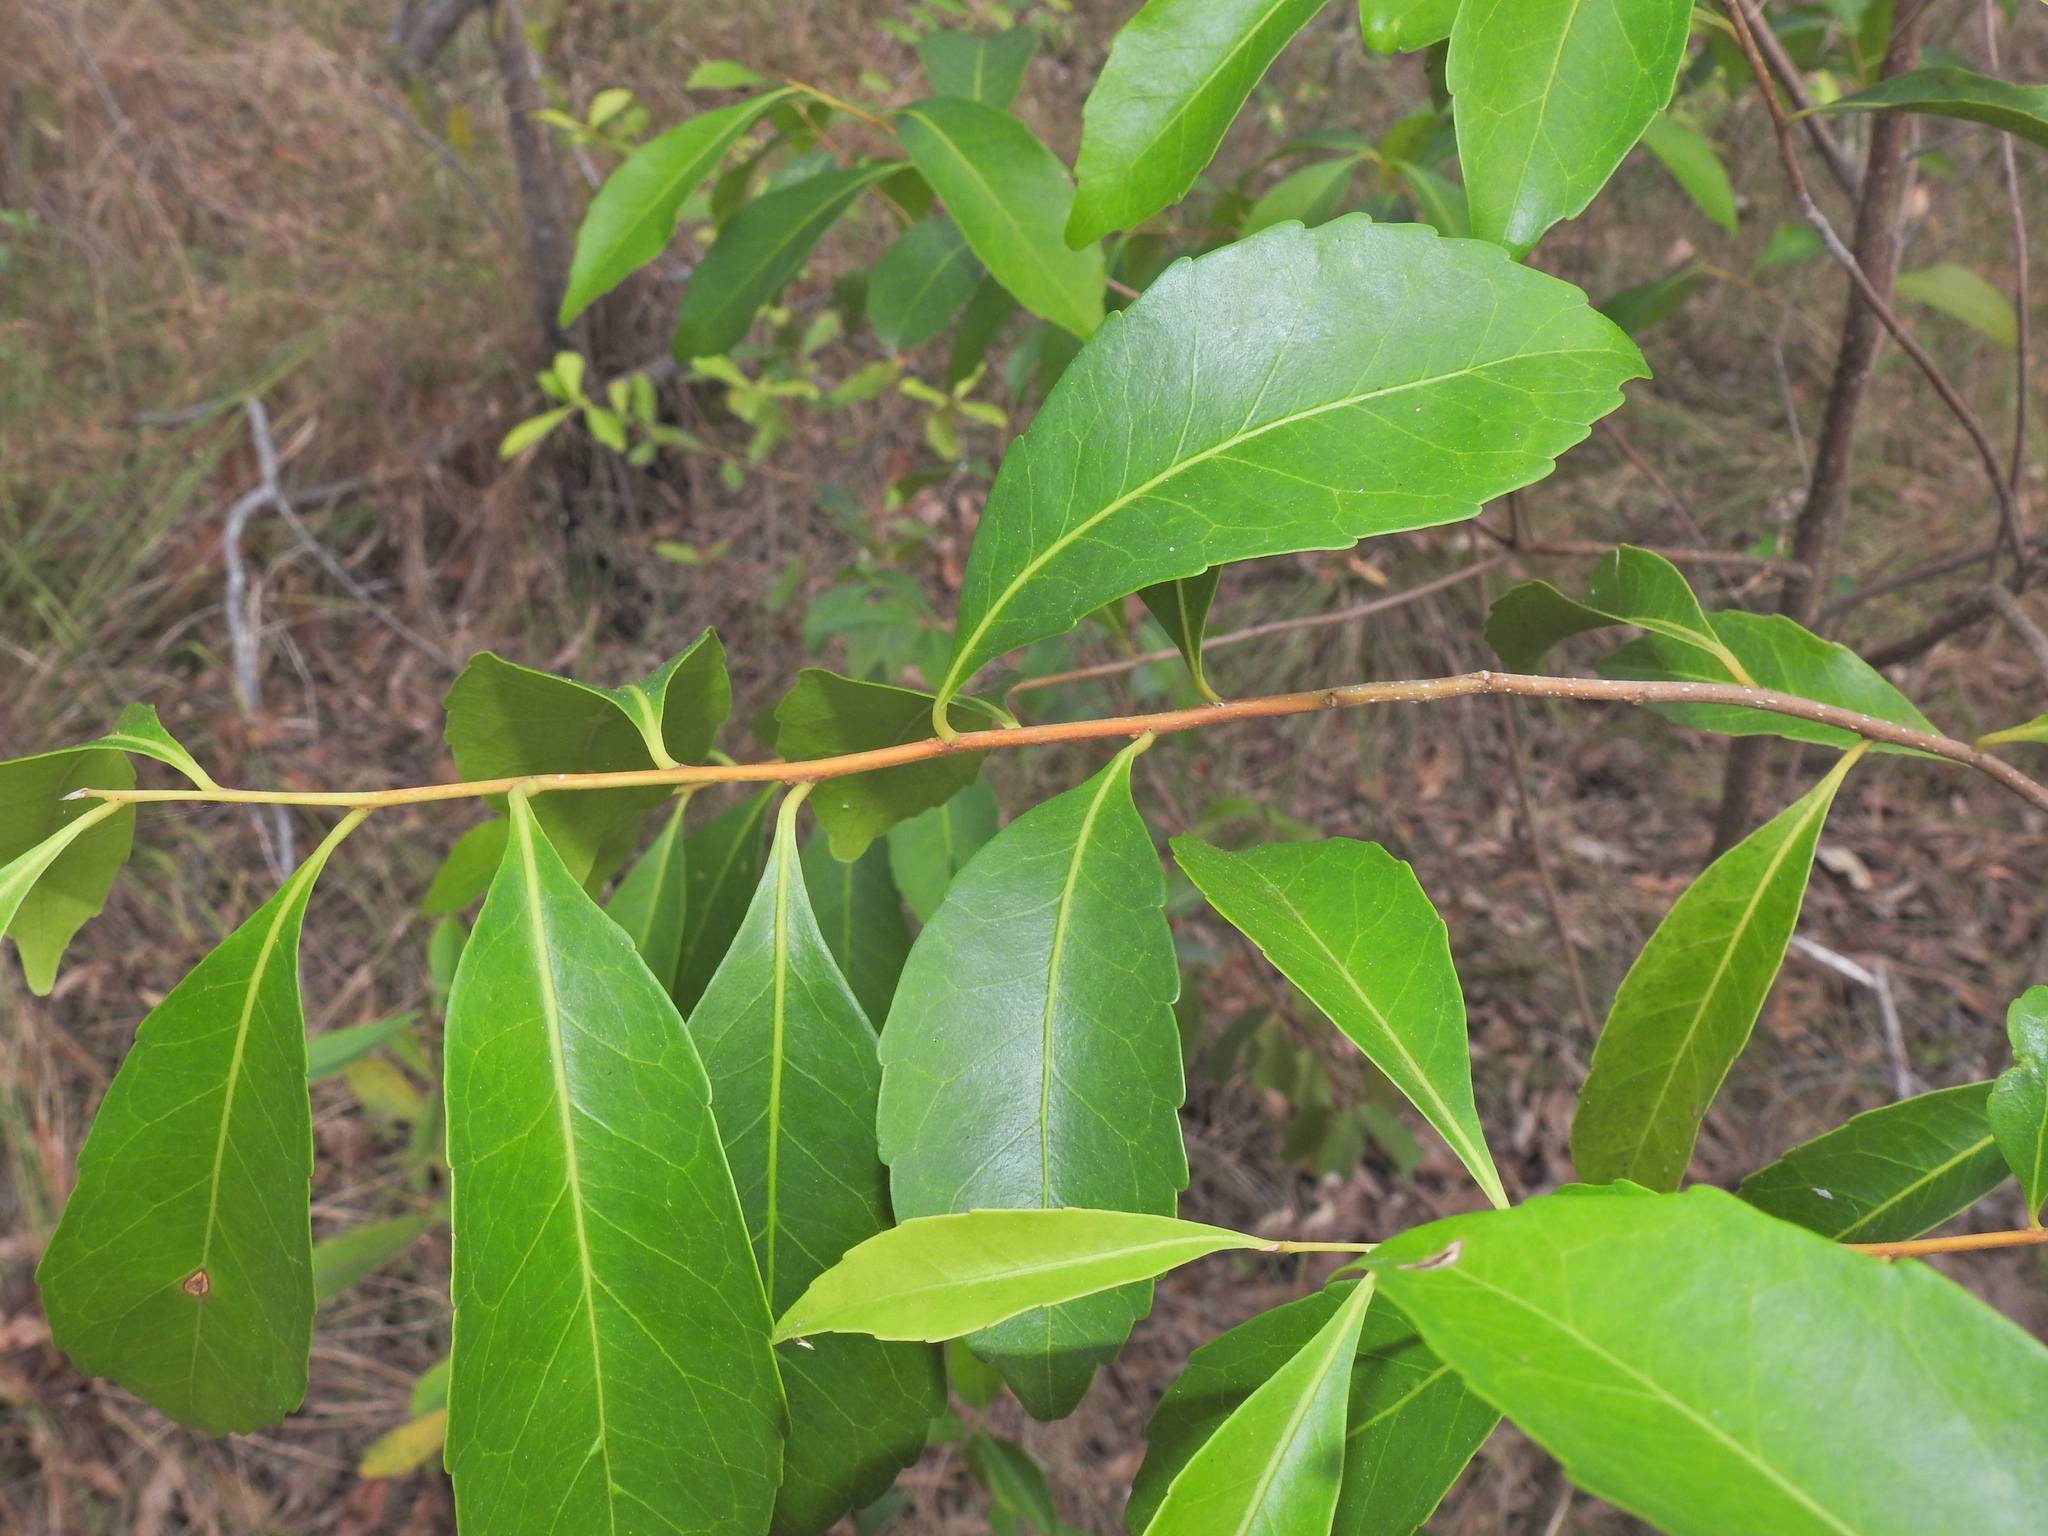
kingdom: Plantae
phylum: Tracheophyta
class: Magnoliopsida
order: Oxalidales
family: Elaeocarpaceae
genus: Elaeocarpus
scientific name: Elaeocarpus obovatus
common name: Freckled oliveberry
